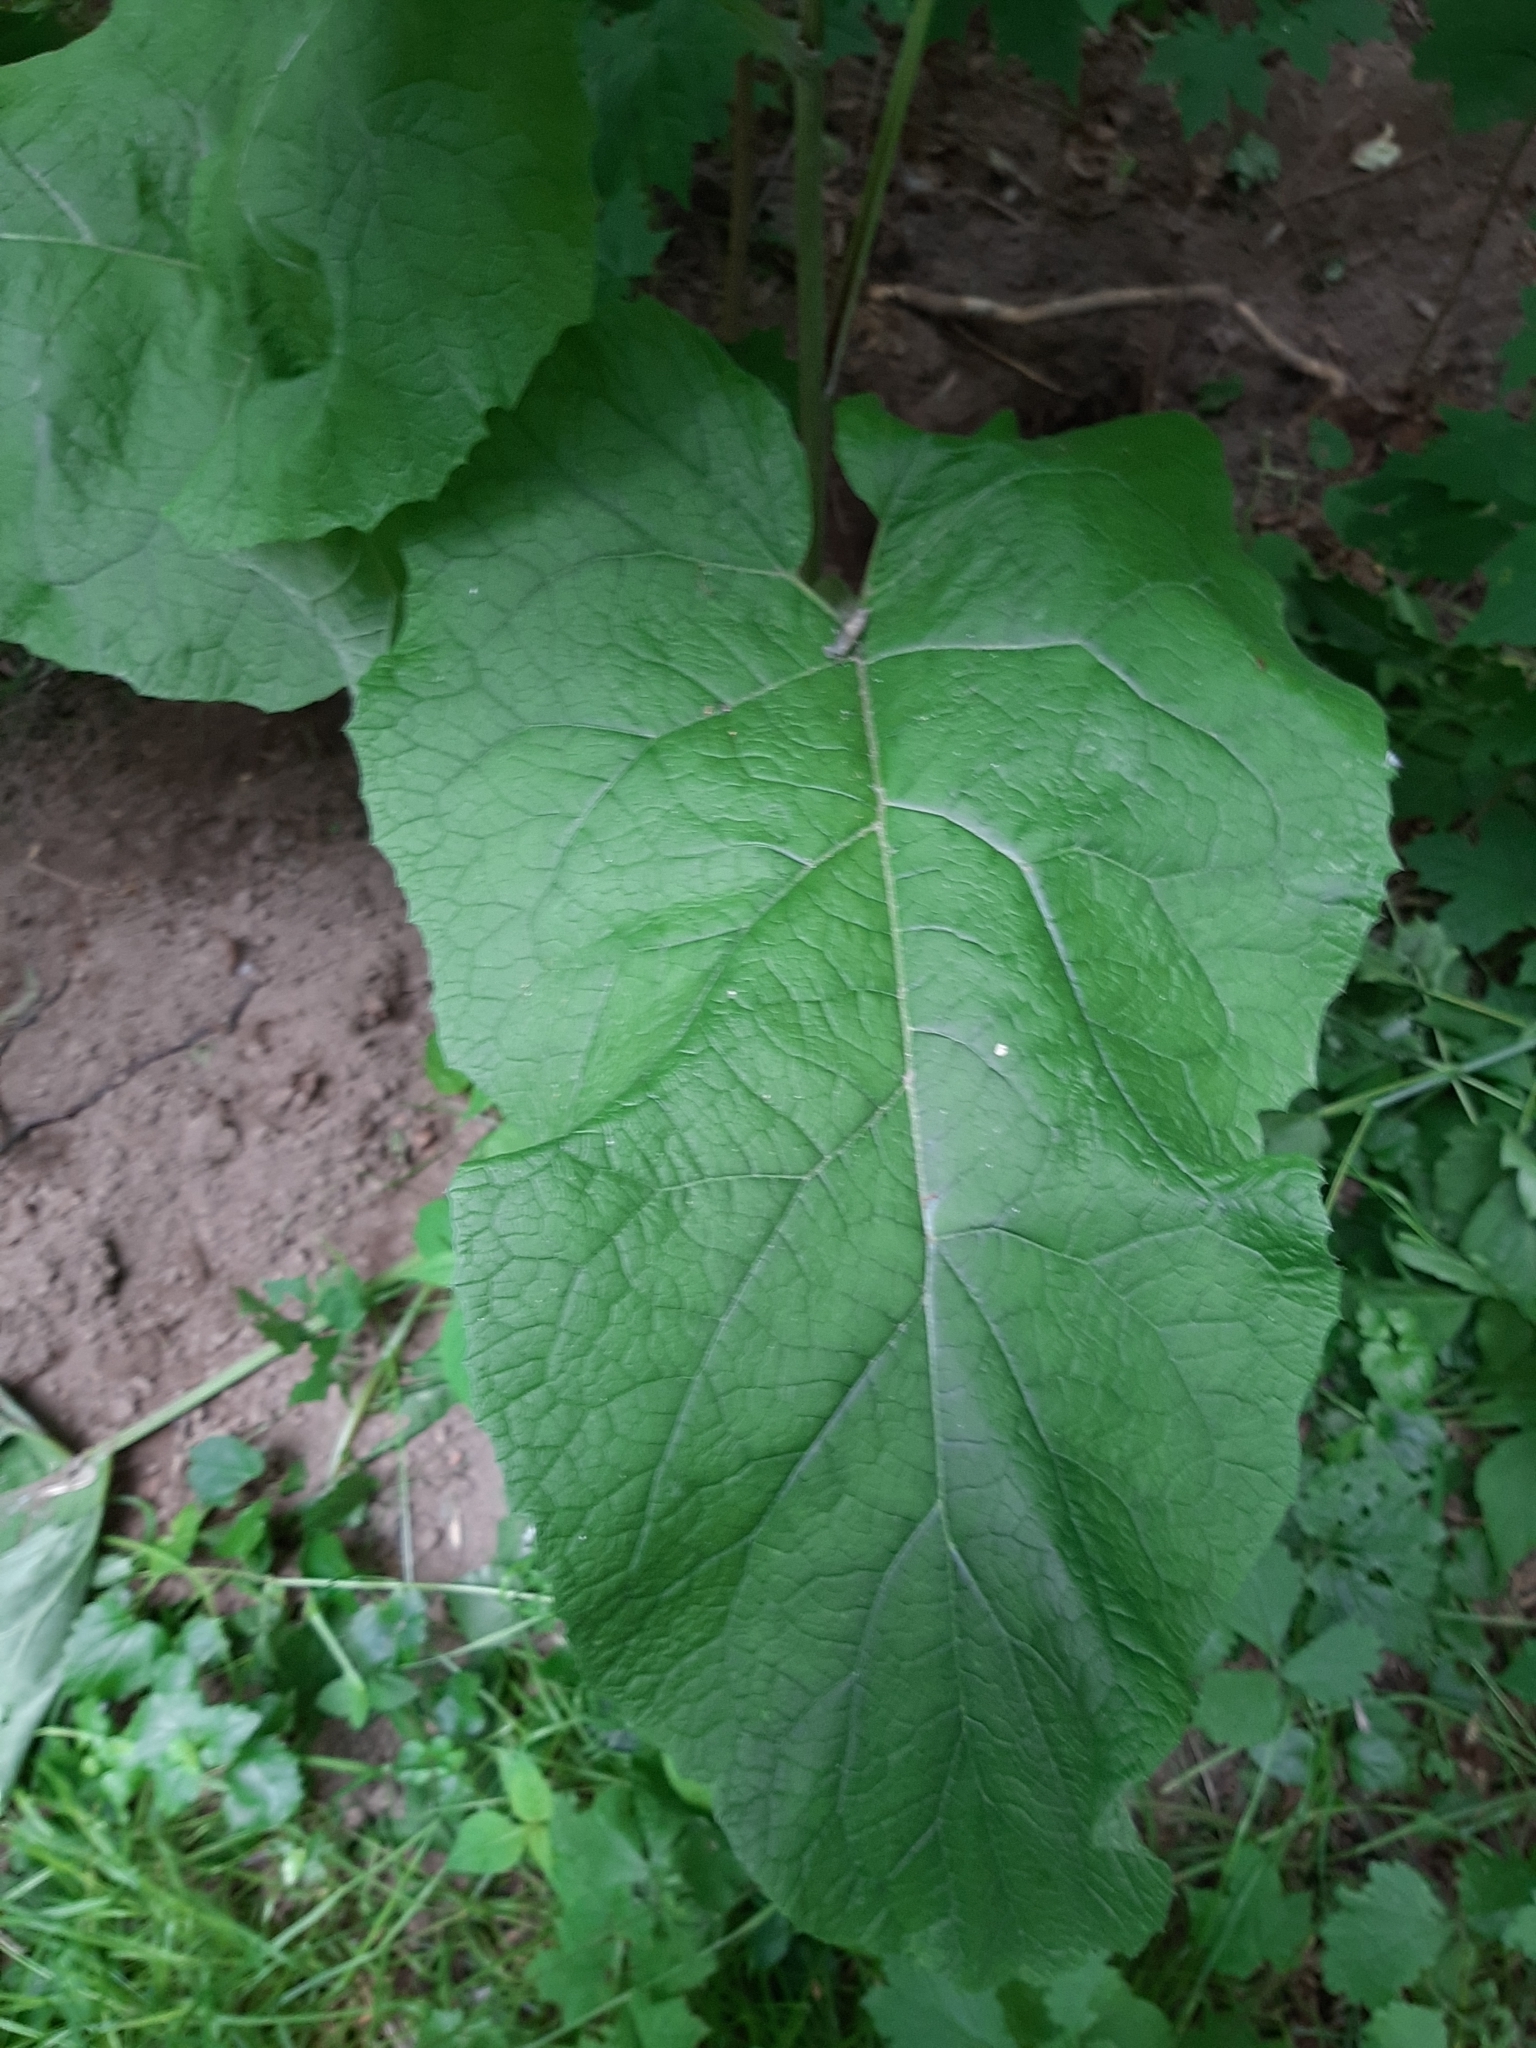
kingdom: Plantae
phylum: Tracheophyta
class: Magnoliopsida
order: Asterales
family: Asteraceae
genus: Arctium
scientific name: Arctium
